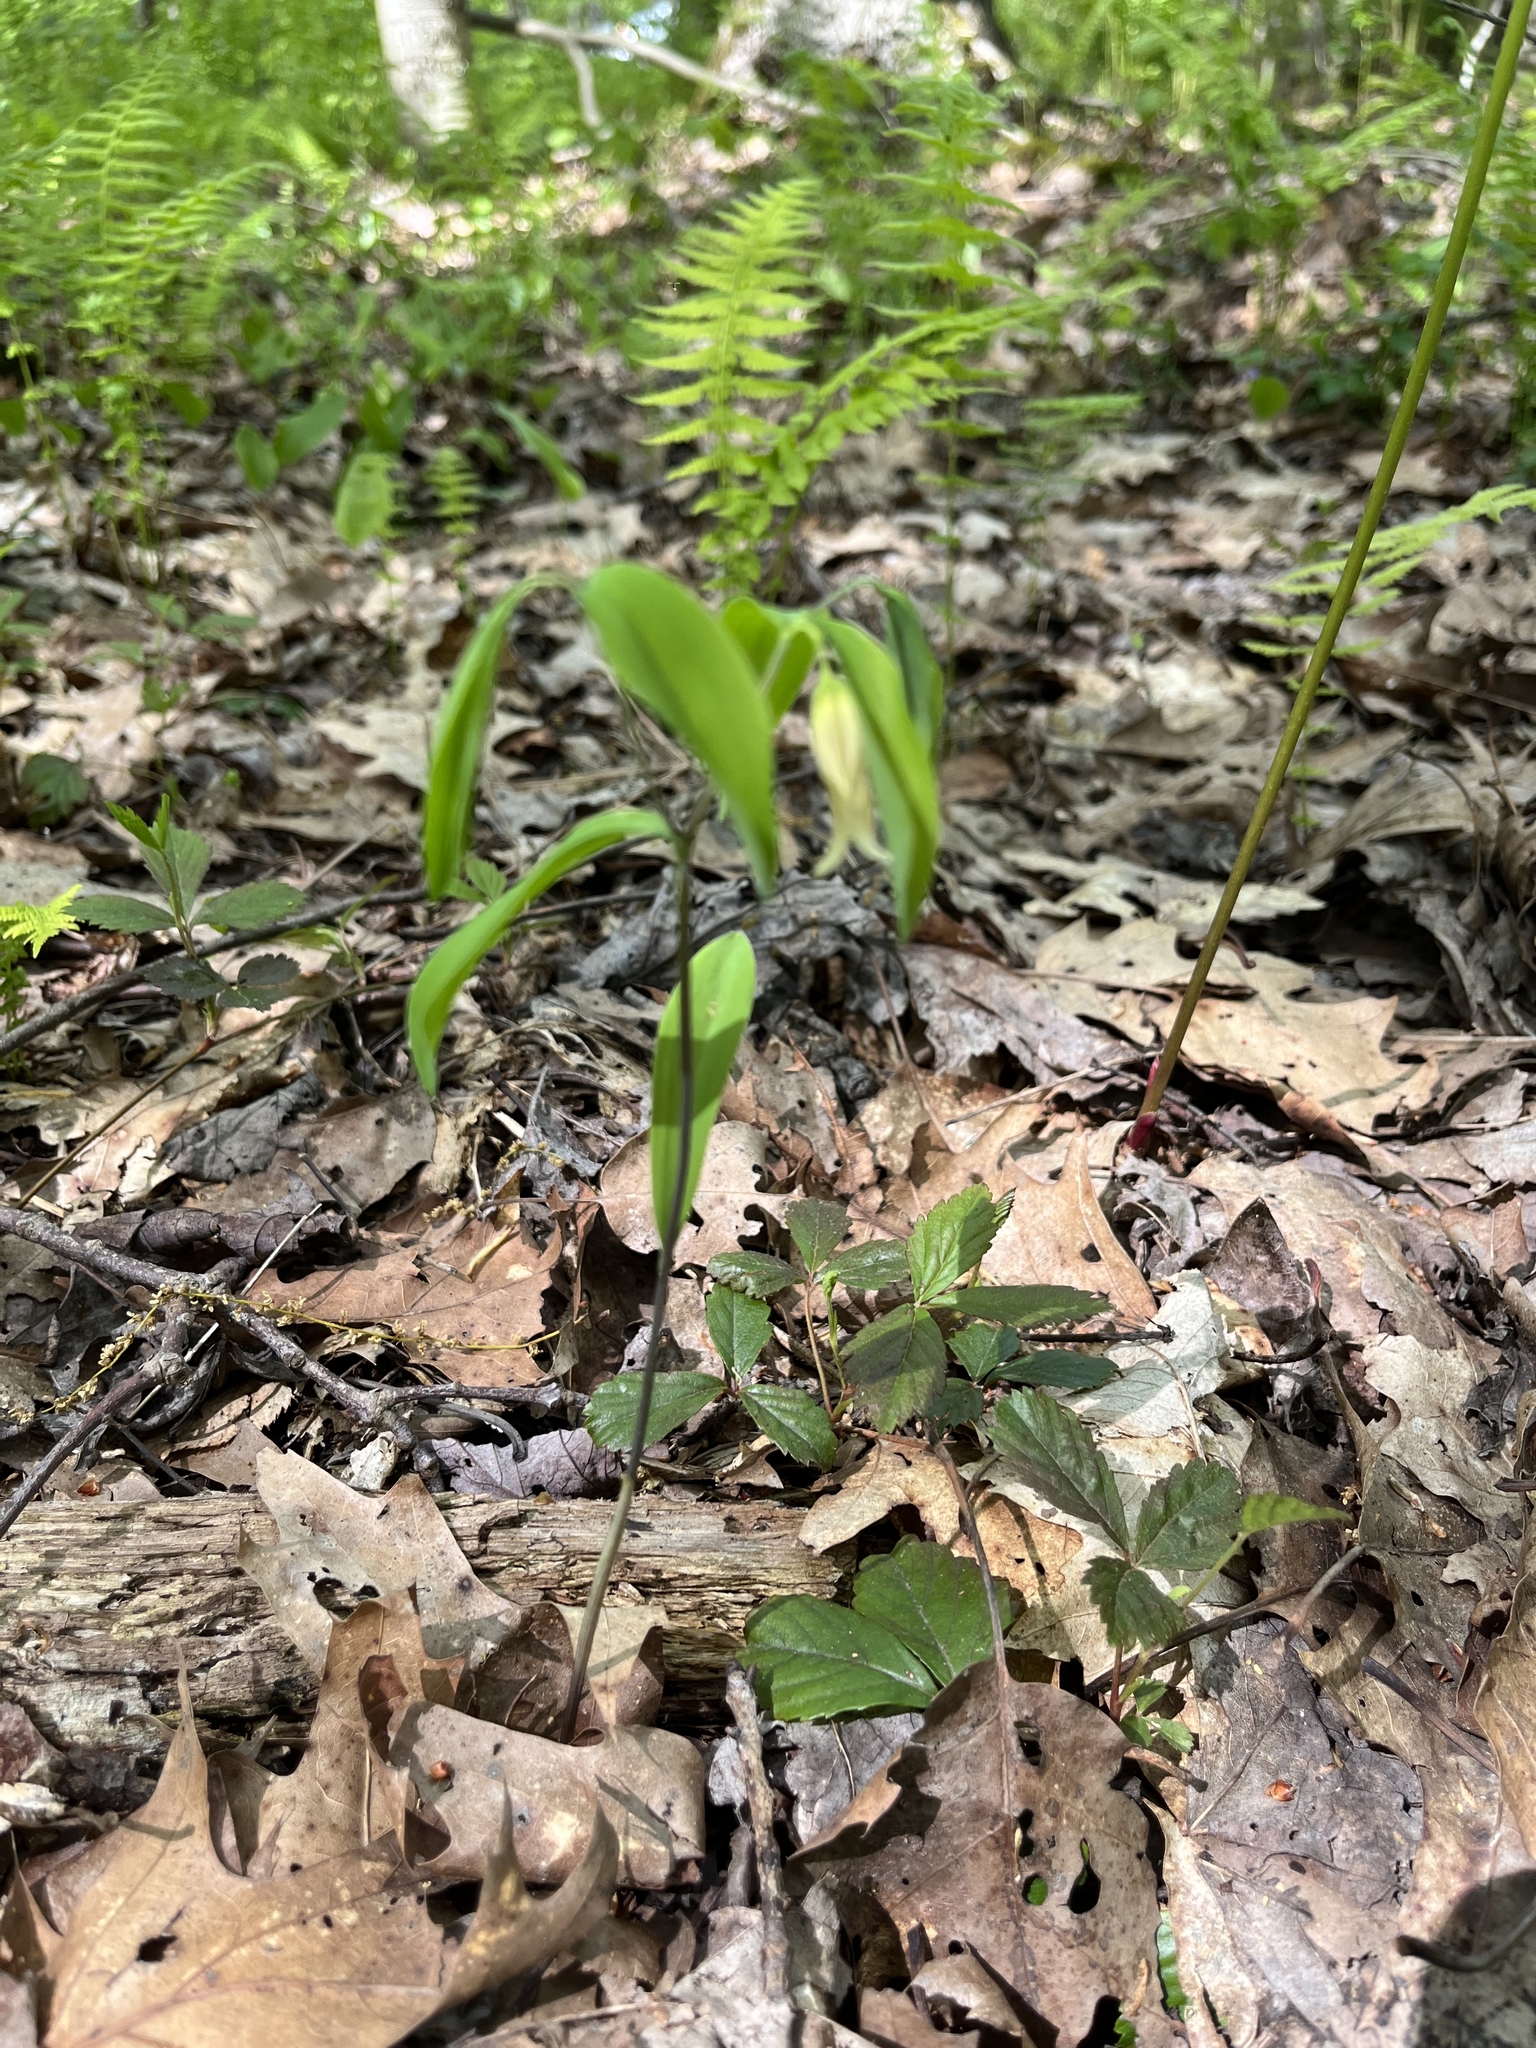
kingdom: Plantae
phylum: Tracheophyta
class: Liliopsida
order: Liliales
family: Colchicaceae
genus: Uvularia
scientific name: Uvularia sessilifolia
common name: Straw-lily
